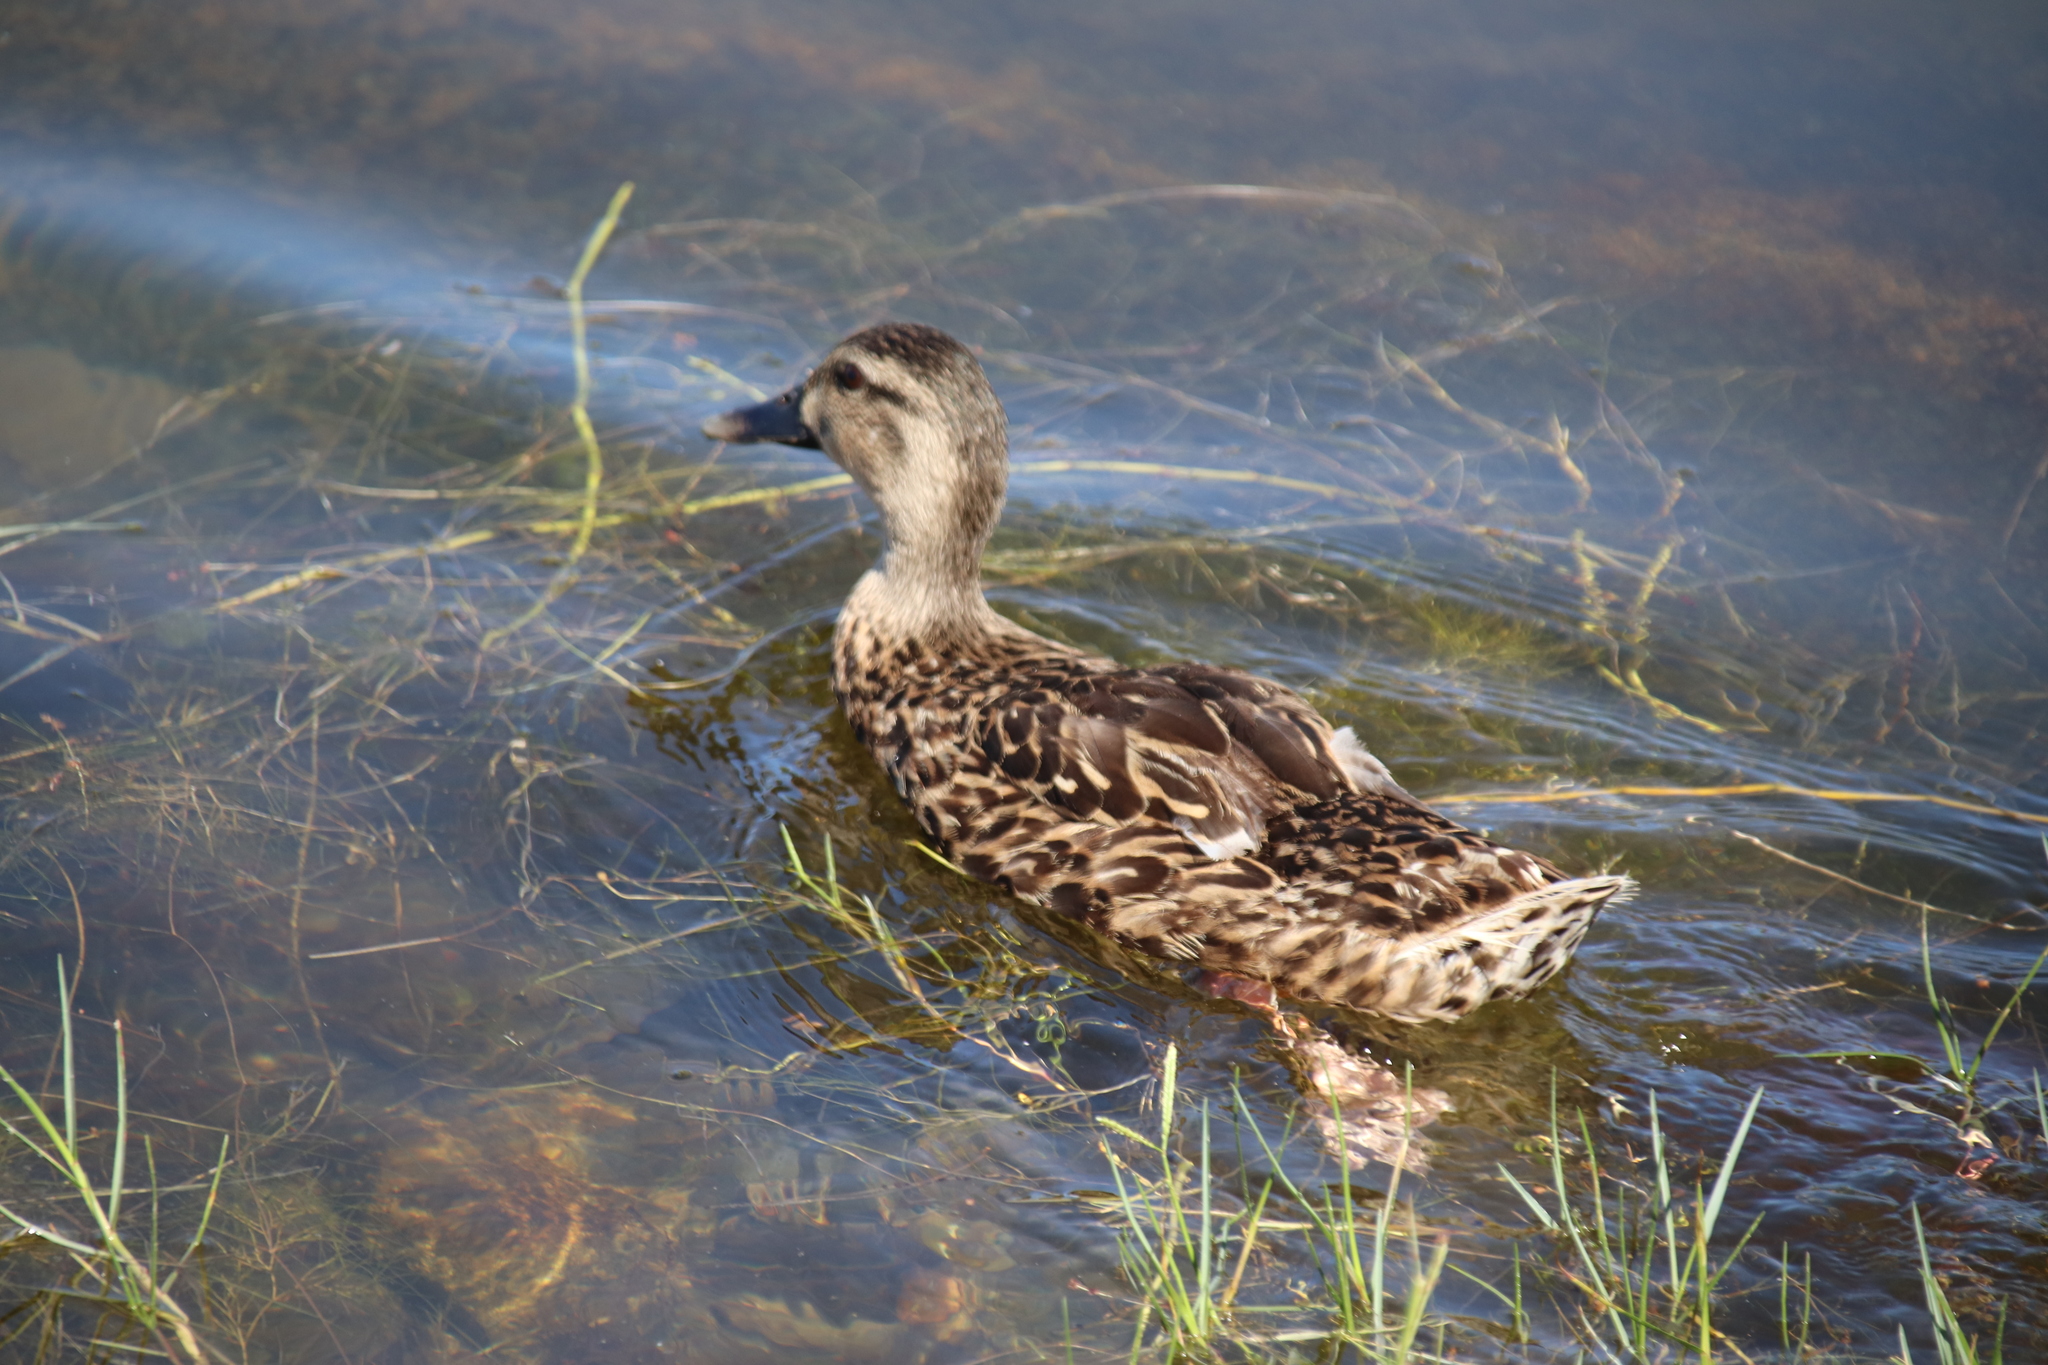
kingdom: Animalia
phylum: Chordata
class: Aves
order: Anseriformes
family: Anatidae
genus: Mareca
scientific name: Mareca strepera
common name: Gadwall
